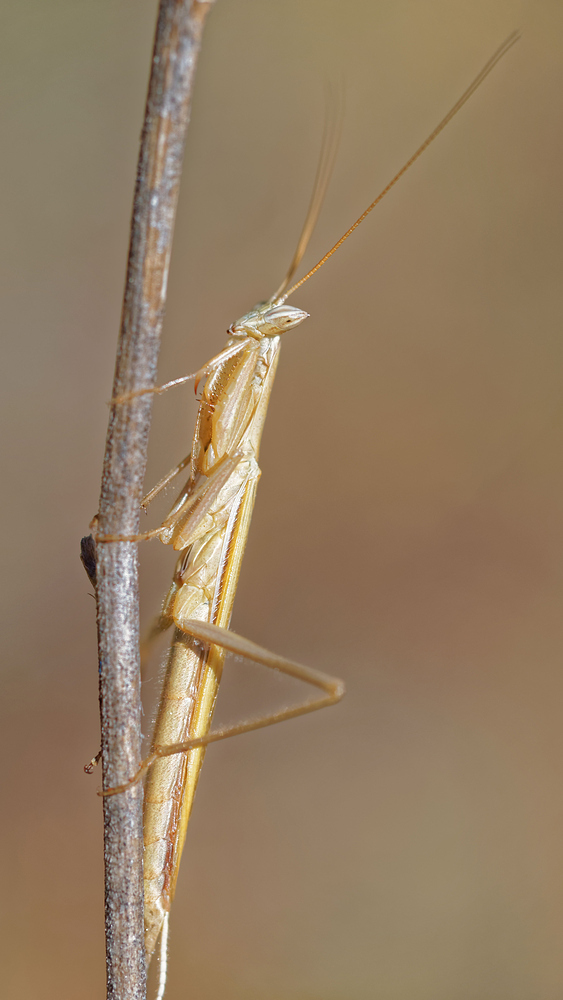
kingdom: Animalia
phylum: Arthropoda
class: Insecta
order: Mantodea
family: Amelidae
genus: Ameles
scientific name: Ameles picteti
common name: Pictet's dwarf mantis
